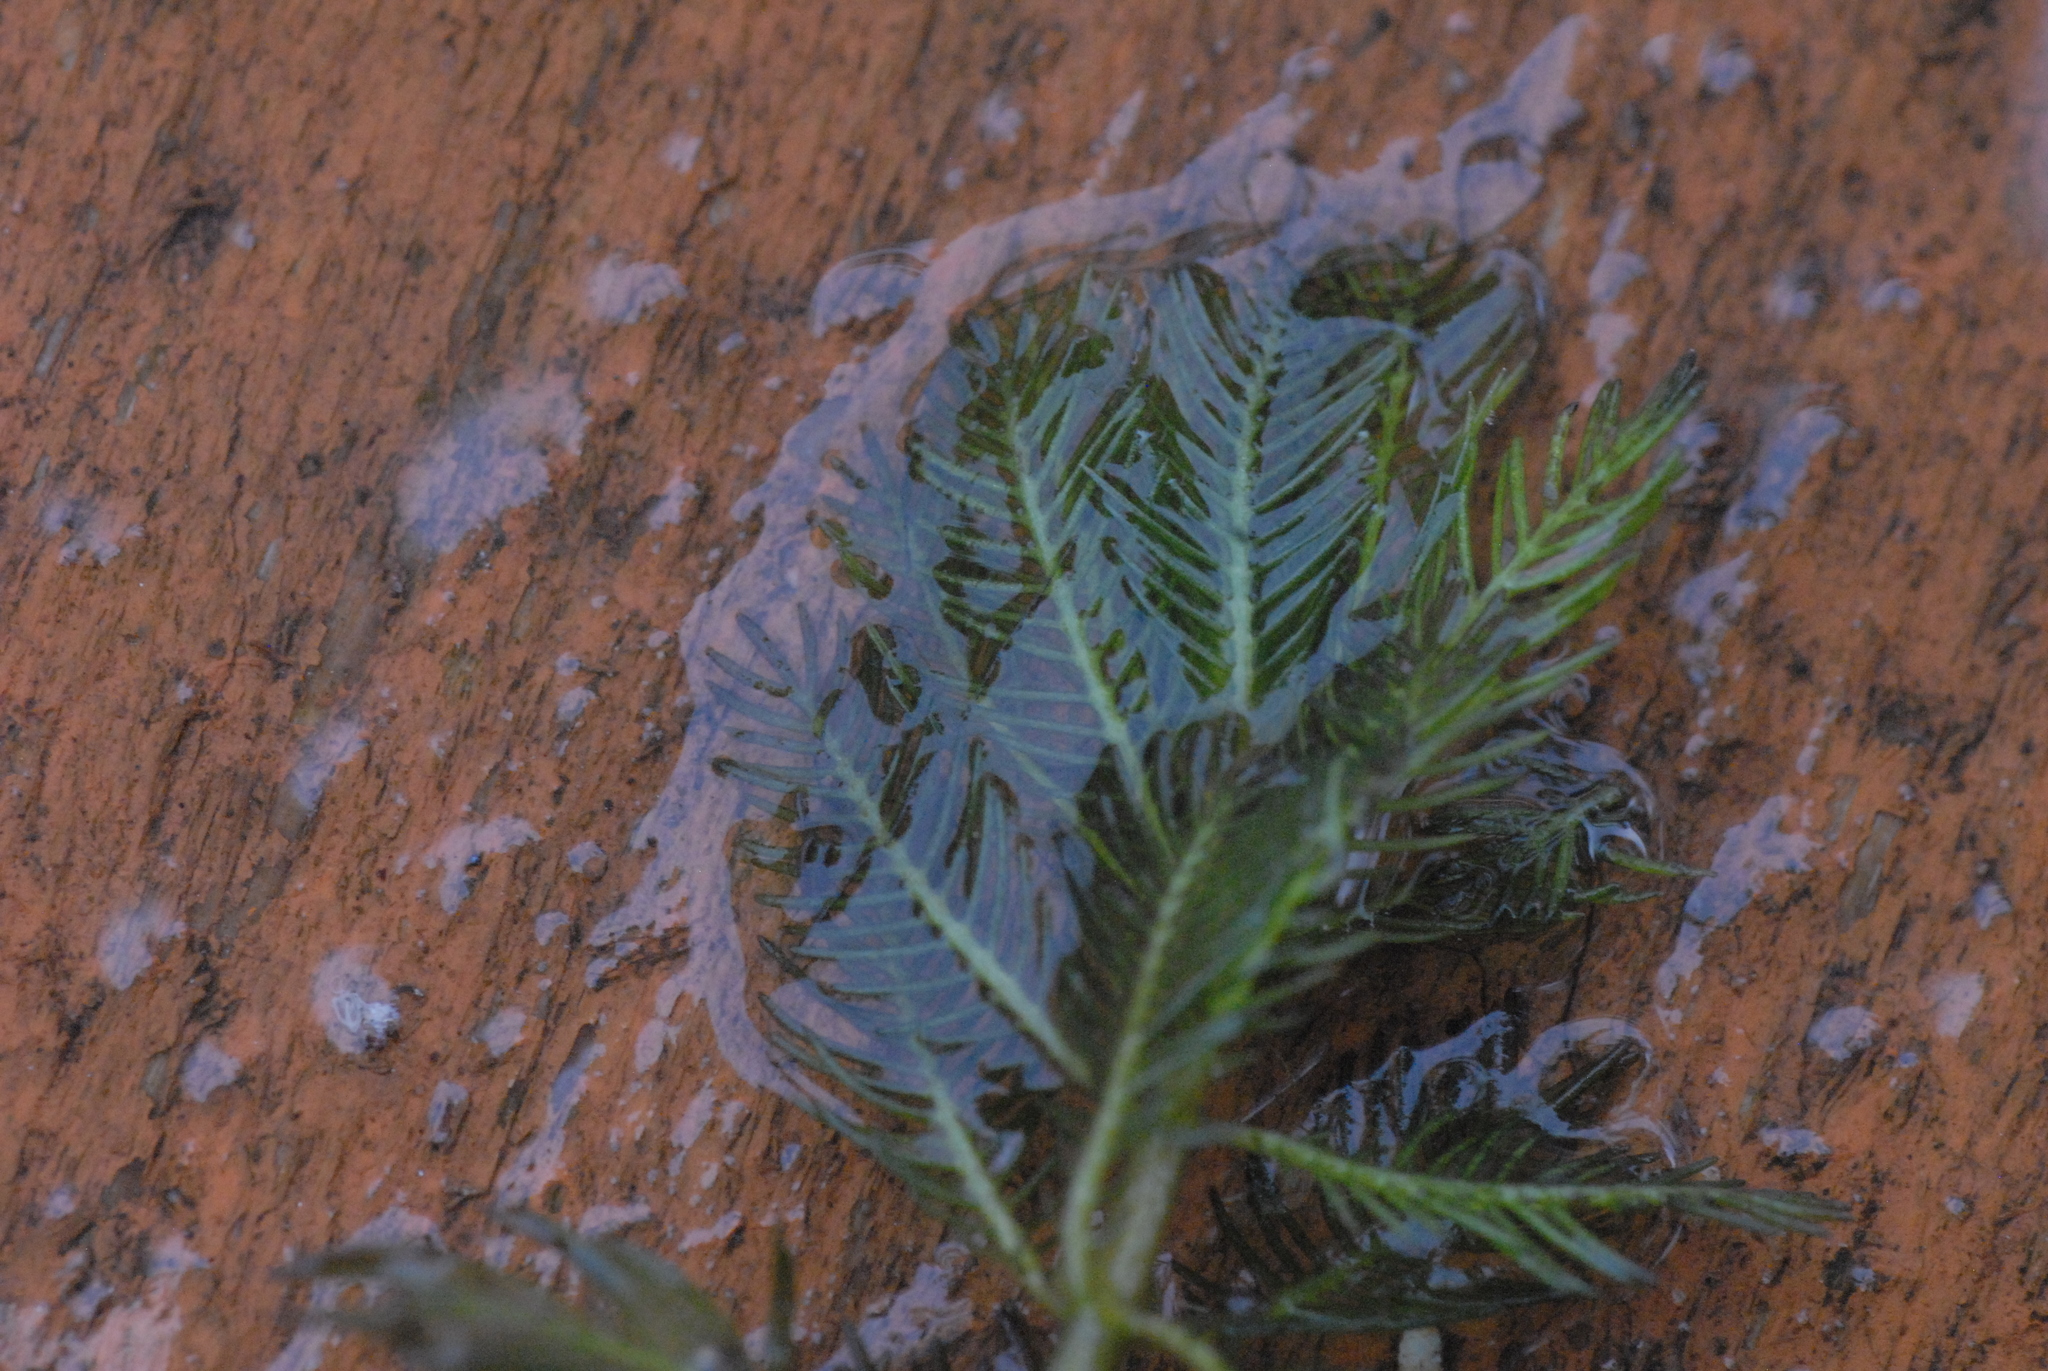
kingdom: Plantae
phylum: Tracheophyta
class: Magnoliopsida
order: Saxifragales
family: Haloragaceae
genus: Myriophyllum
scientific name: Myriophyllum verticillatum
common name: Whorled water-milfoil
